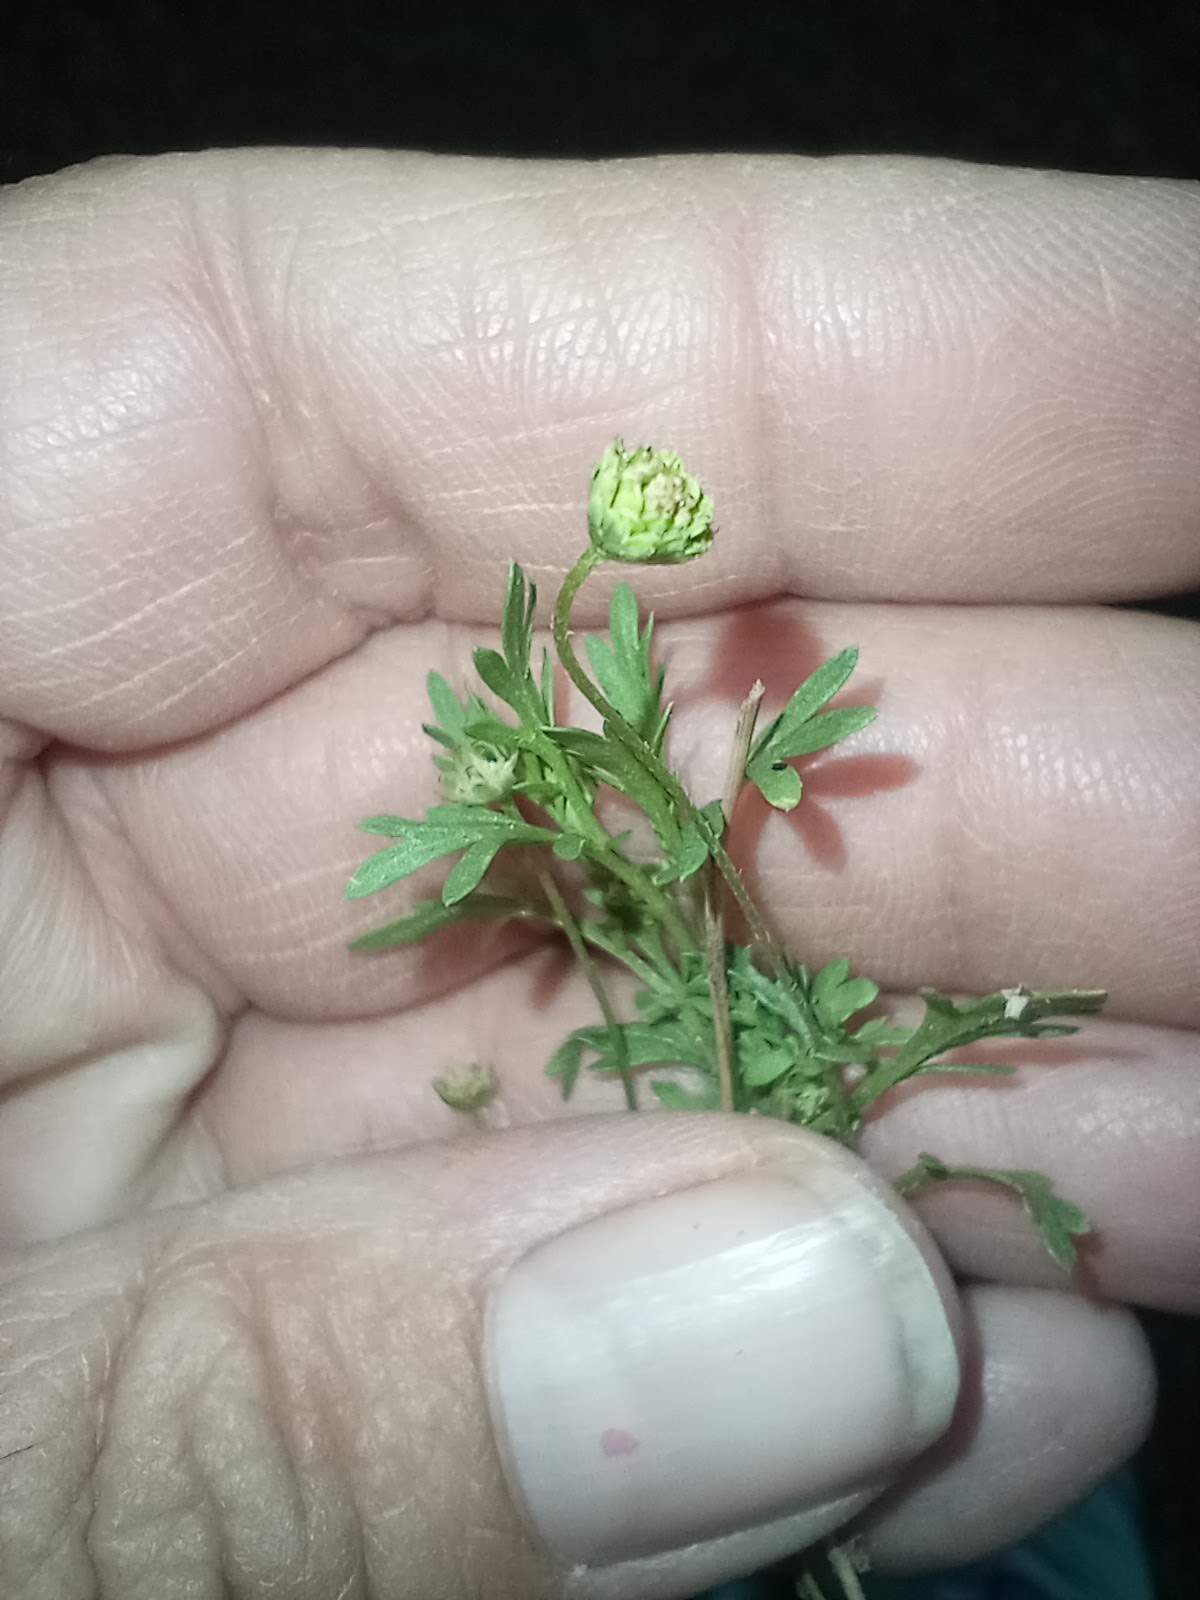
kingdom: Plantae
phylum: Tracheophyta
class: Magnoliopsida
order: Asterales
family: Asteraceae
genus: Cotula
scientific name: Cotula australis
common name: Australian waterbuttons
